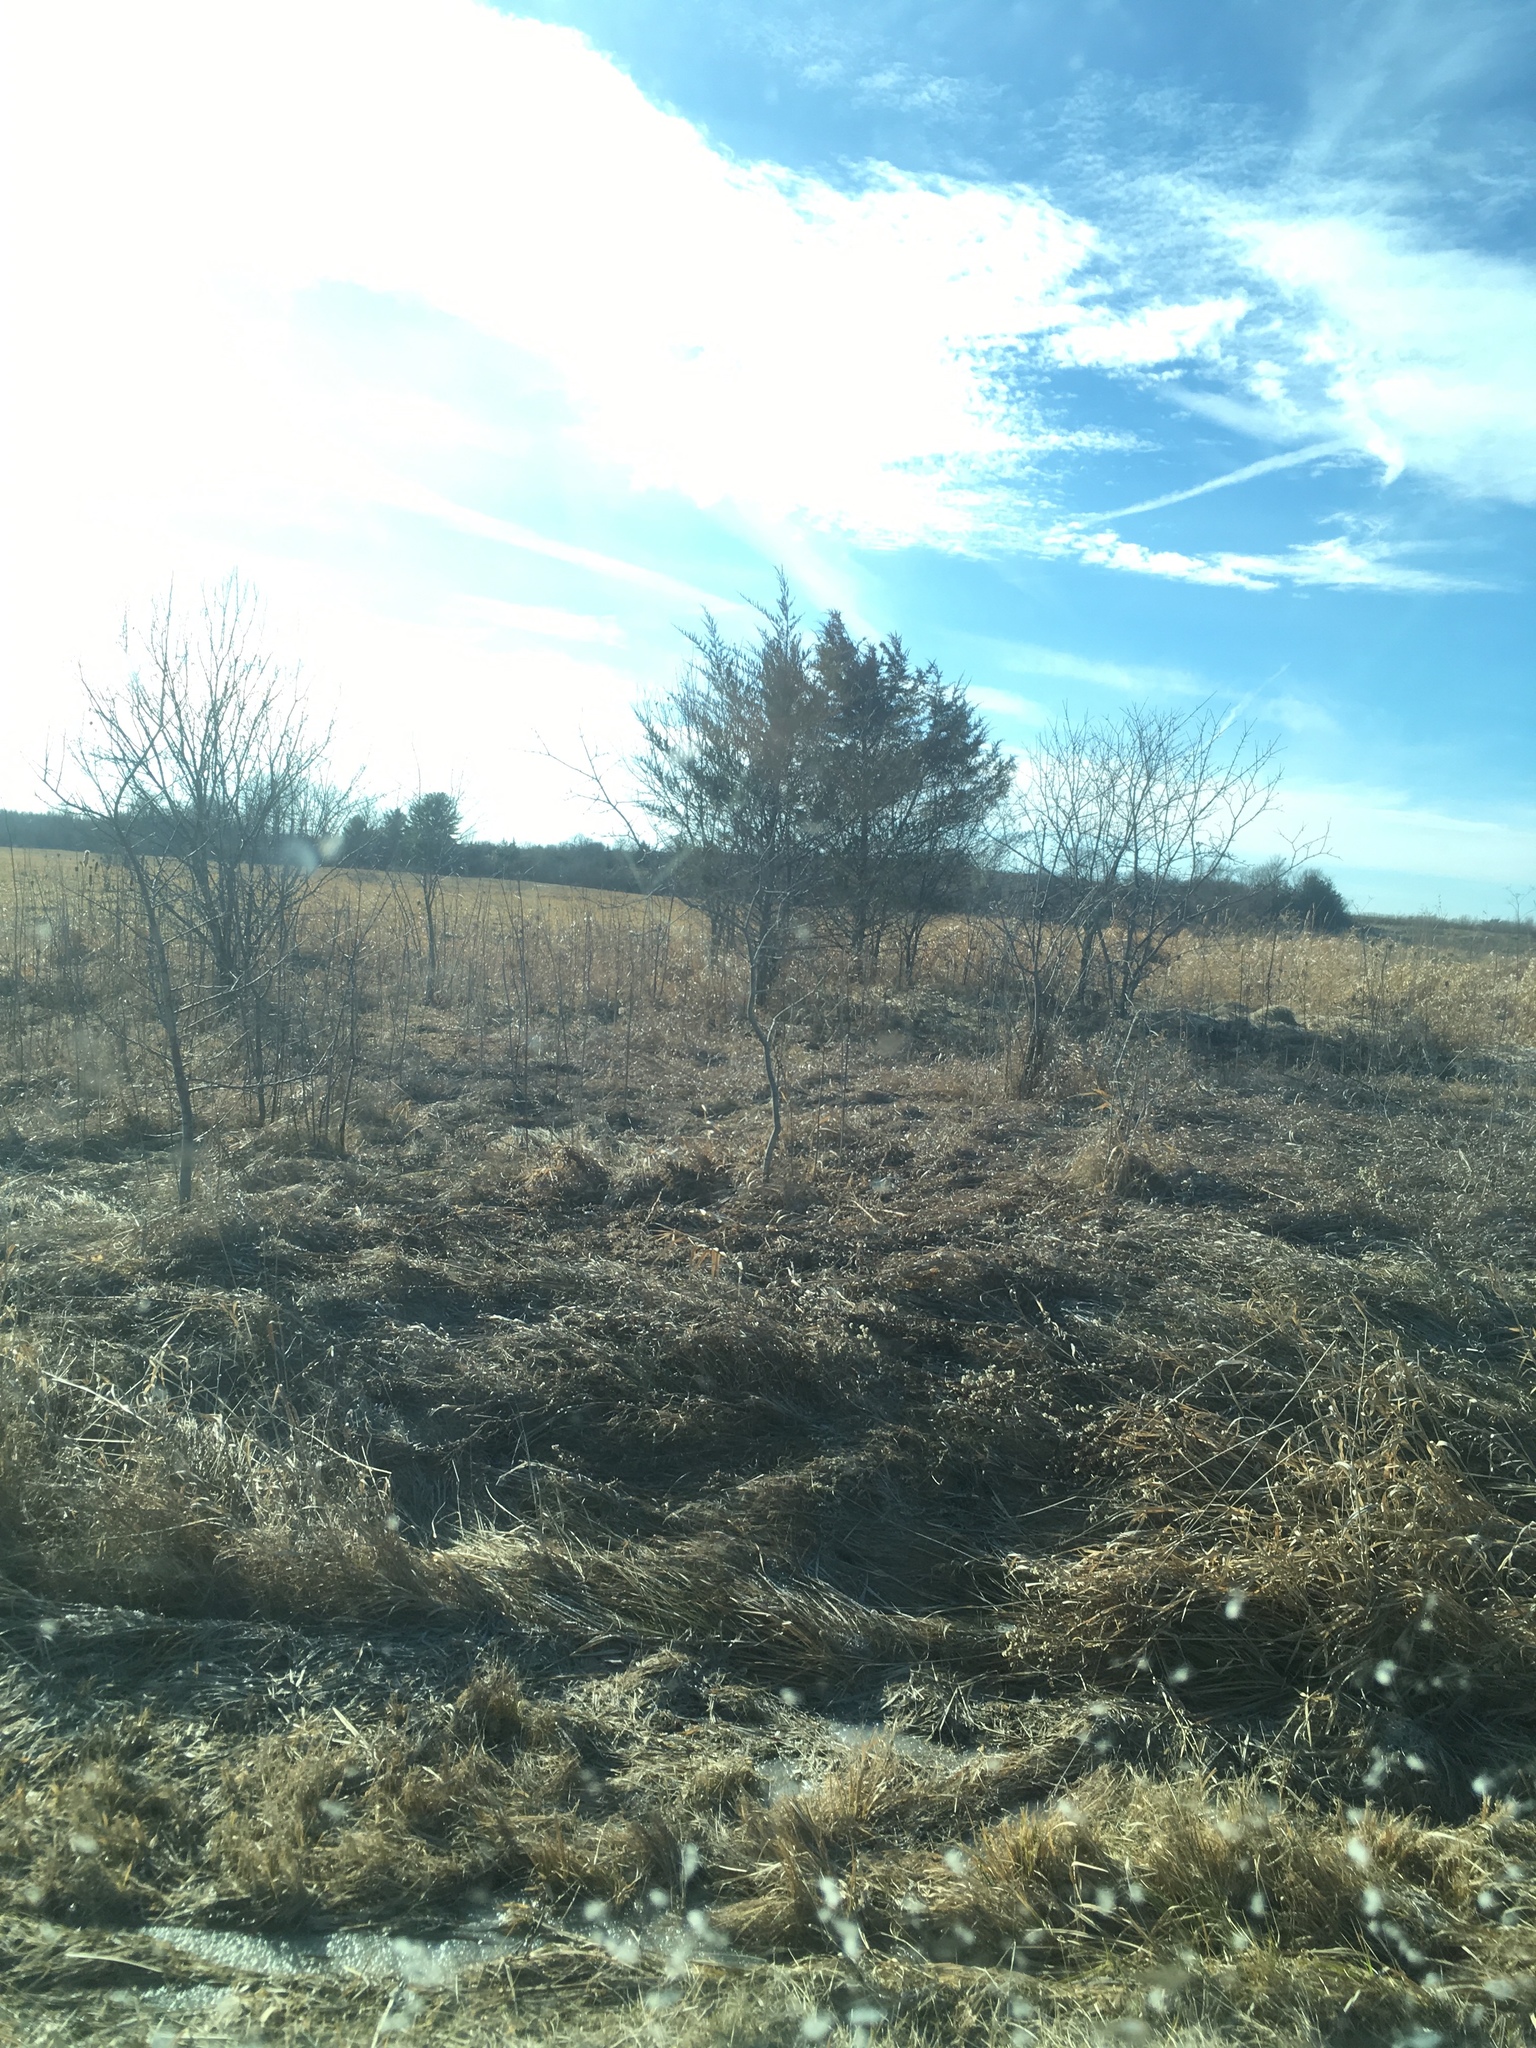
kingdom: Plantae
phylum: Tracheophyta
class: Pinopsida
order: Pinales
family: Cupressaceae
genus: Juniperus
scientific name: Juniperus virginiana
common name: Red juniper
